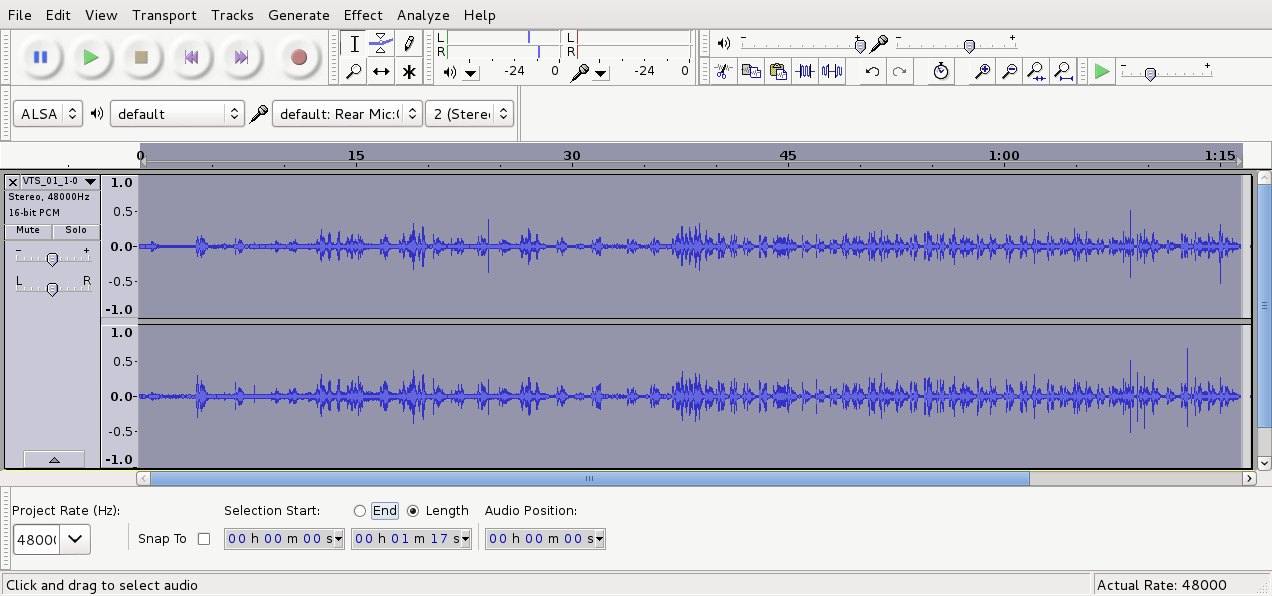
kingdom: Animalia
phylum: Chordata
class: Aves
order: Psittaciformes
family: Psittacidae
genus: Platycercus
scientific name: Platycercus eximius
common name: Eastern rosella
